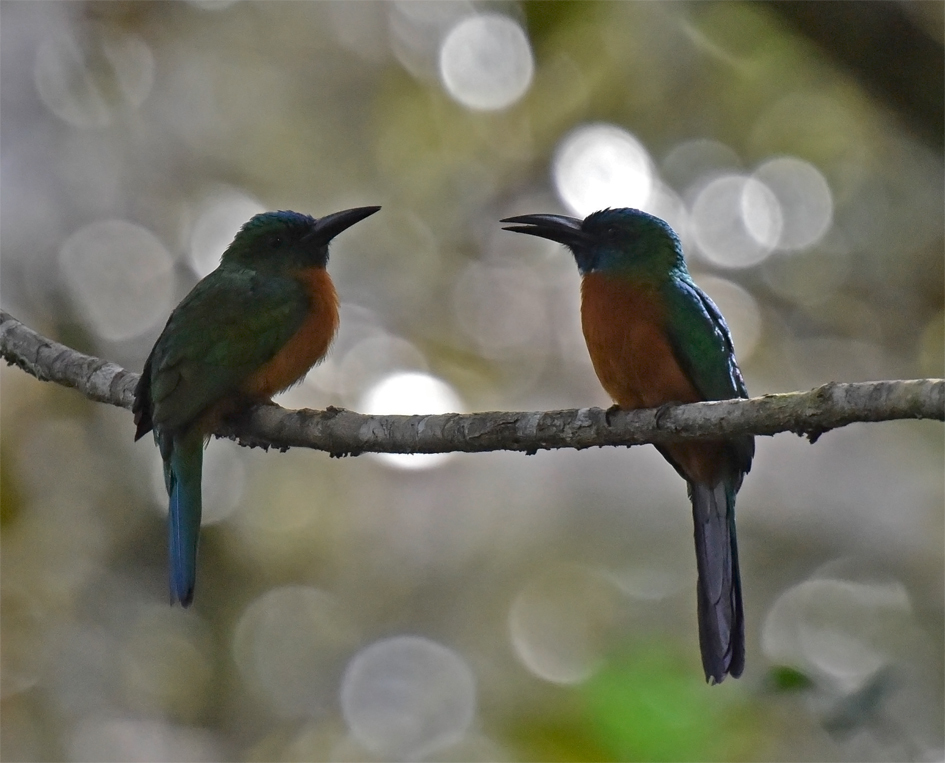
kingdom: Animalia
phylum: Chordata
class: Aves
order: Piciformes
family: Galbulidae
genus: Jacamerops
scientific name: Jacamerops aureus
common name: Great jacamar
